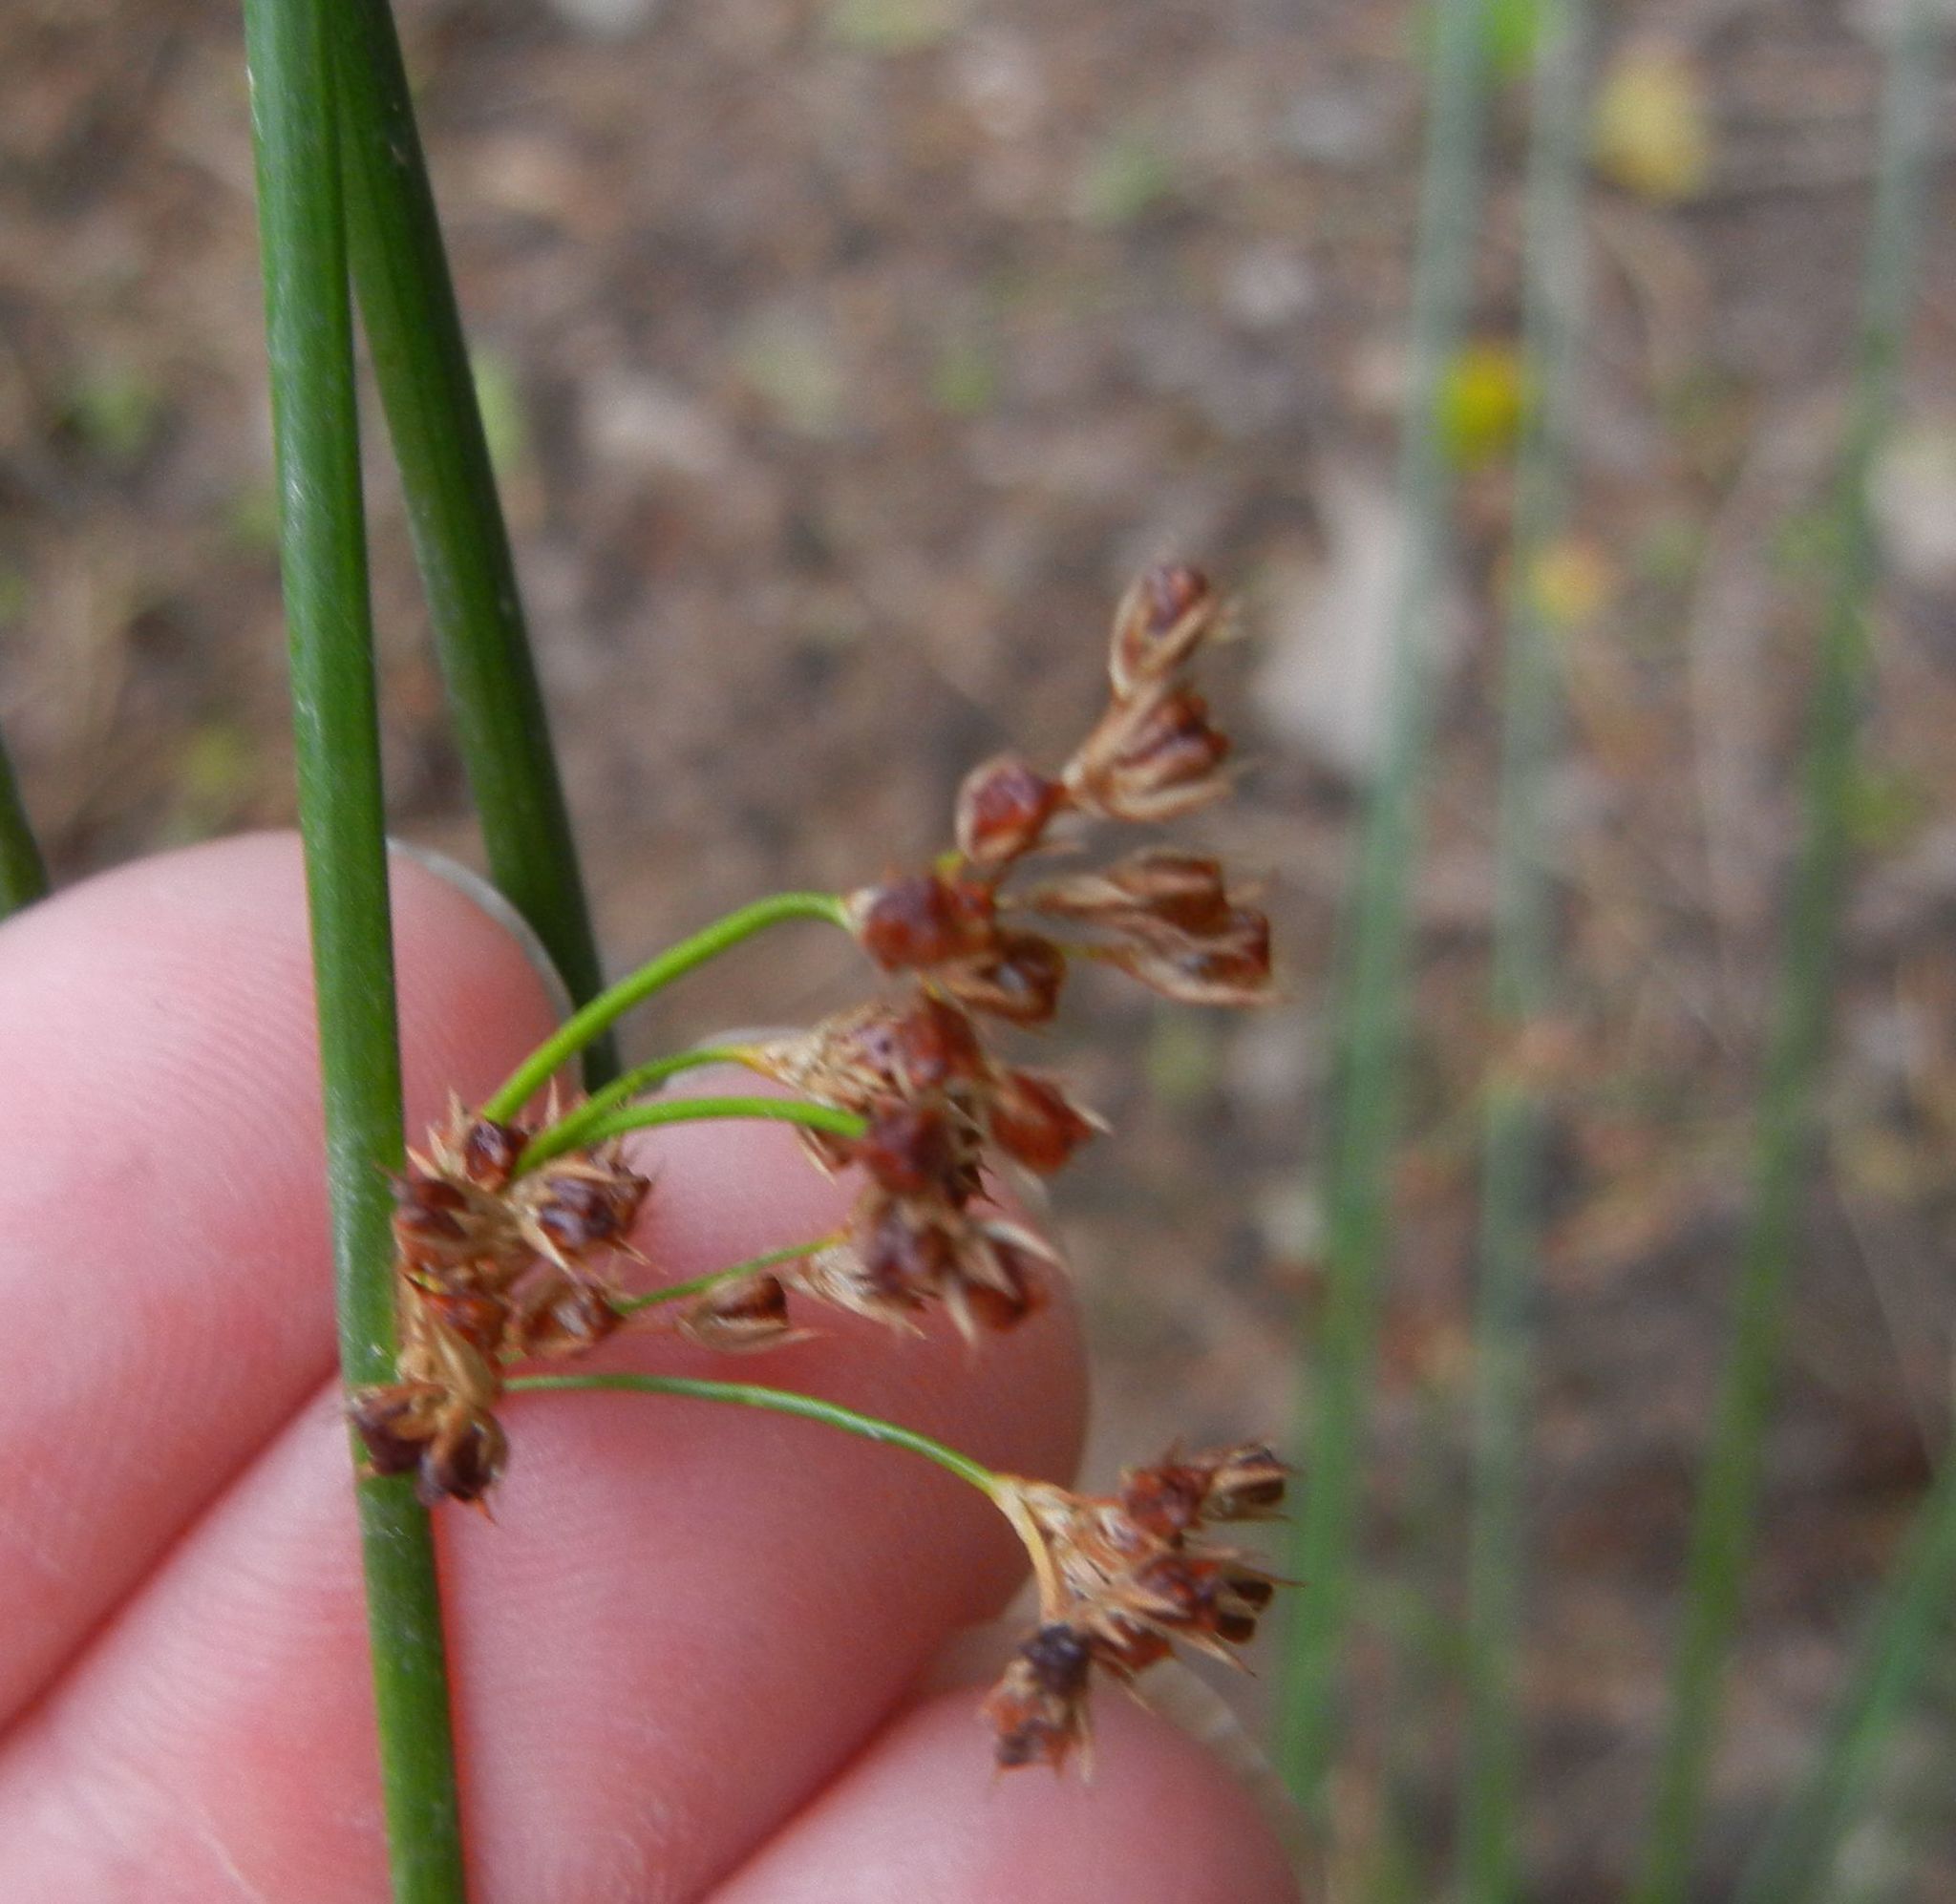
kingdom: Plantae
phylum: Tracheophyta
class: Liliopsida
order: Poales
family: Juncaceae
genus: Juncus
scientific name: Juncus effusus
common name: Soft rush
